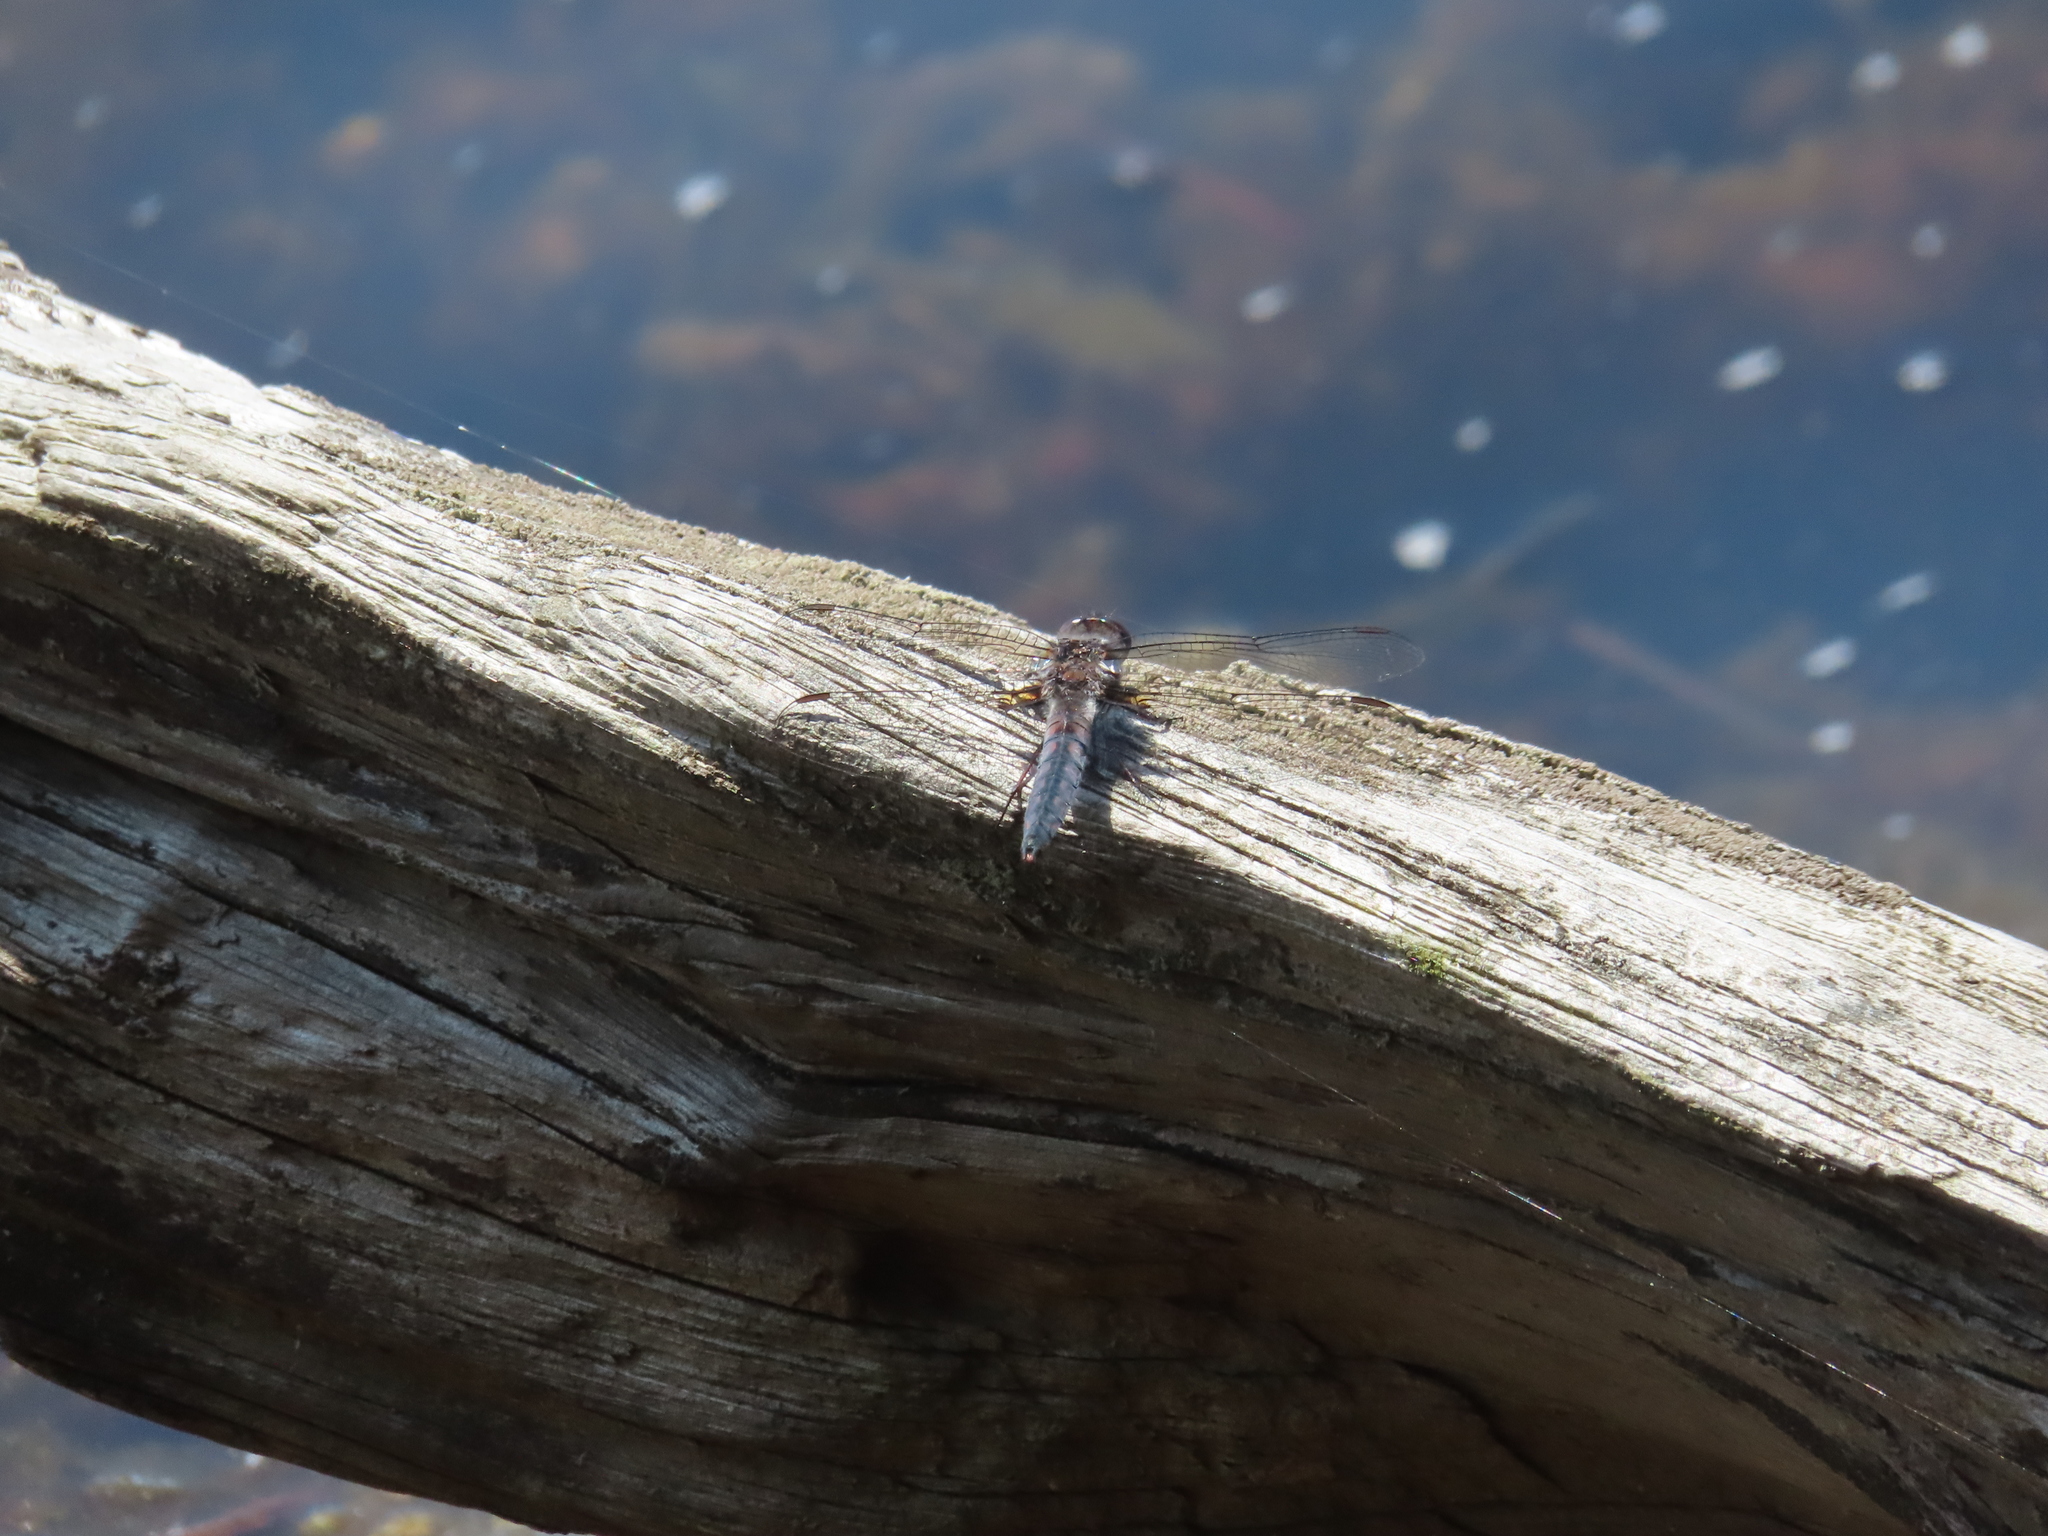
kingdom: Animalia
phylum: Arthropoda
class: Insecta
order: Odonata
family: Libellulidae
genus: Ladona
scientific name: Ladona deplanata
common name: Blue corporal
